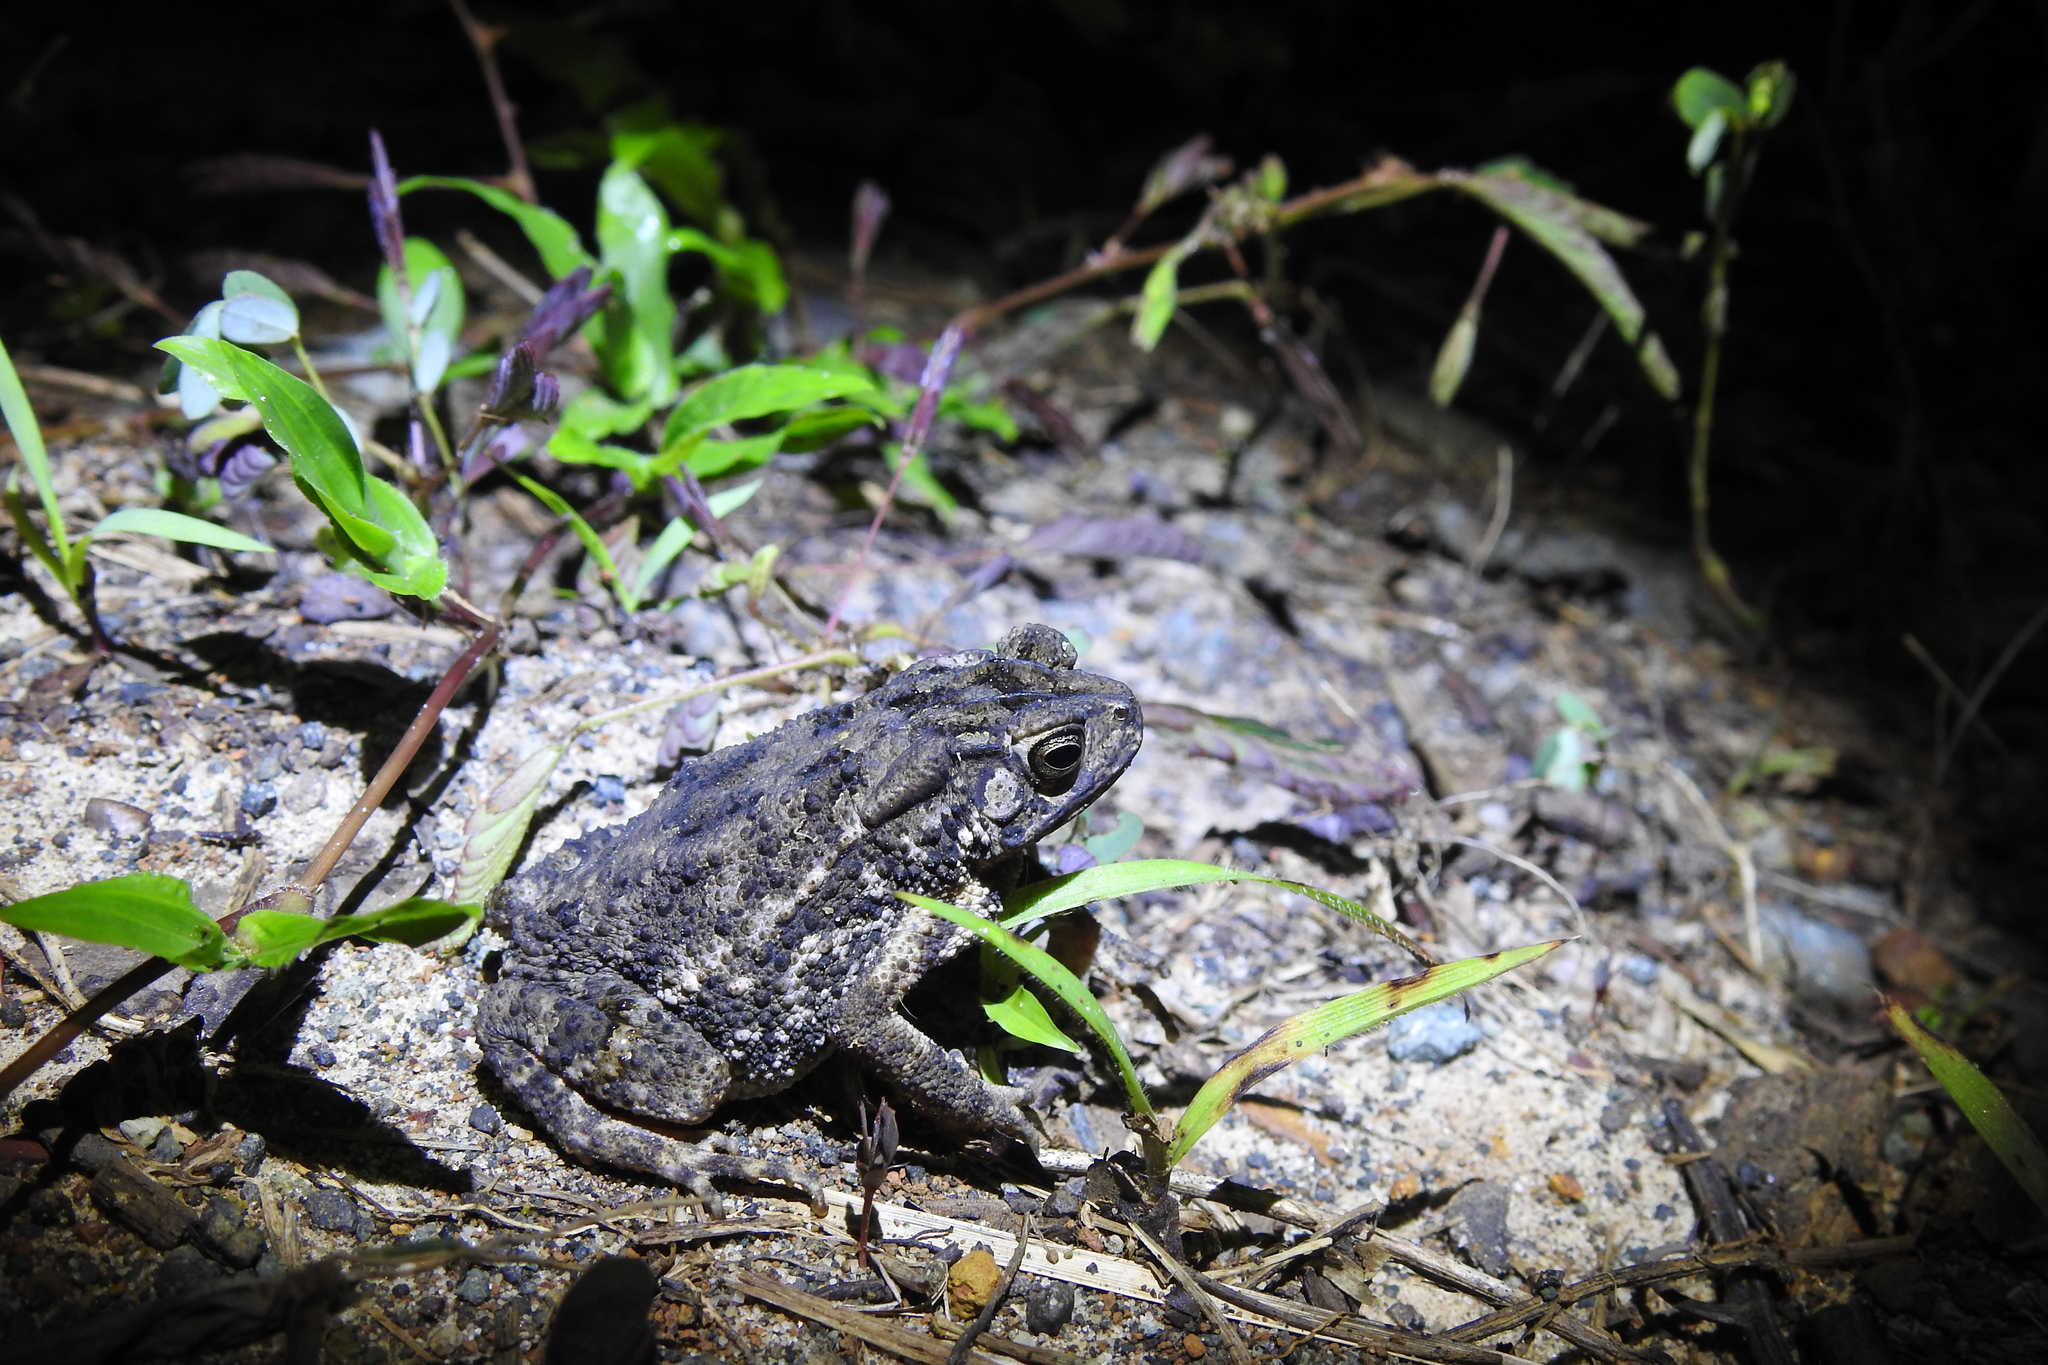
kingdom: Animalia
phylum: Chordata
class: Amphibia
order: Anura
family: Bufonidae
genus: Ingerophrynus
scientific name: Ingerophrynus biporcatus
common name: Crested toad
